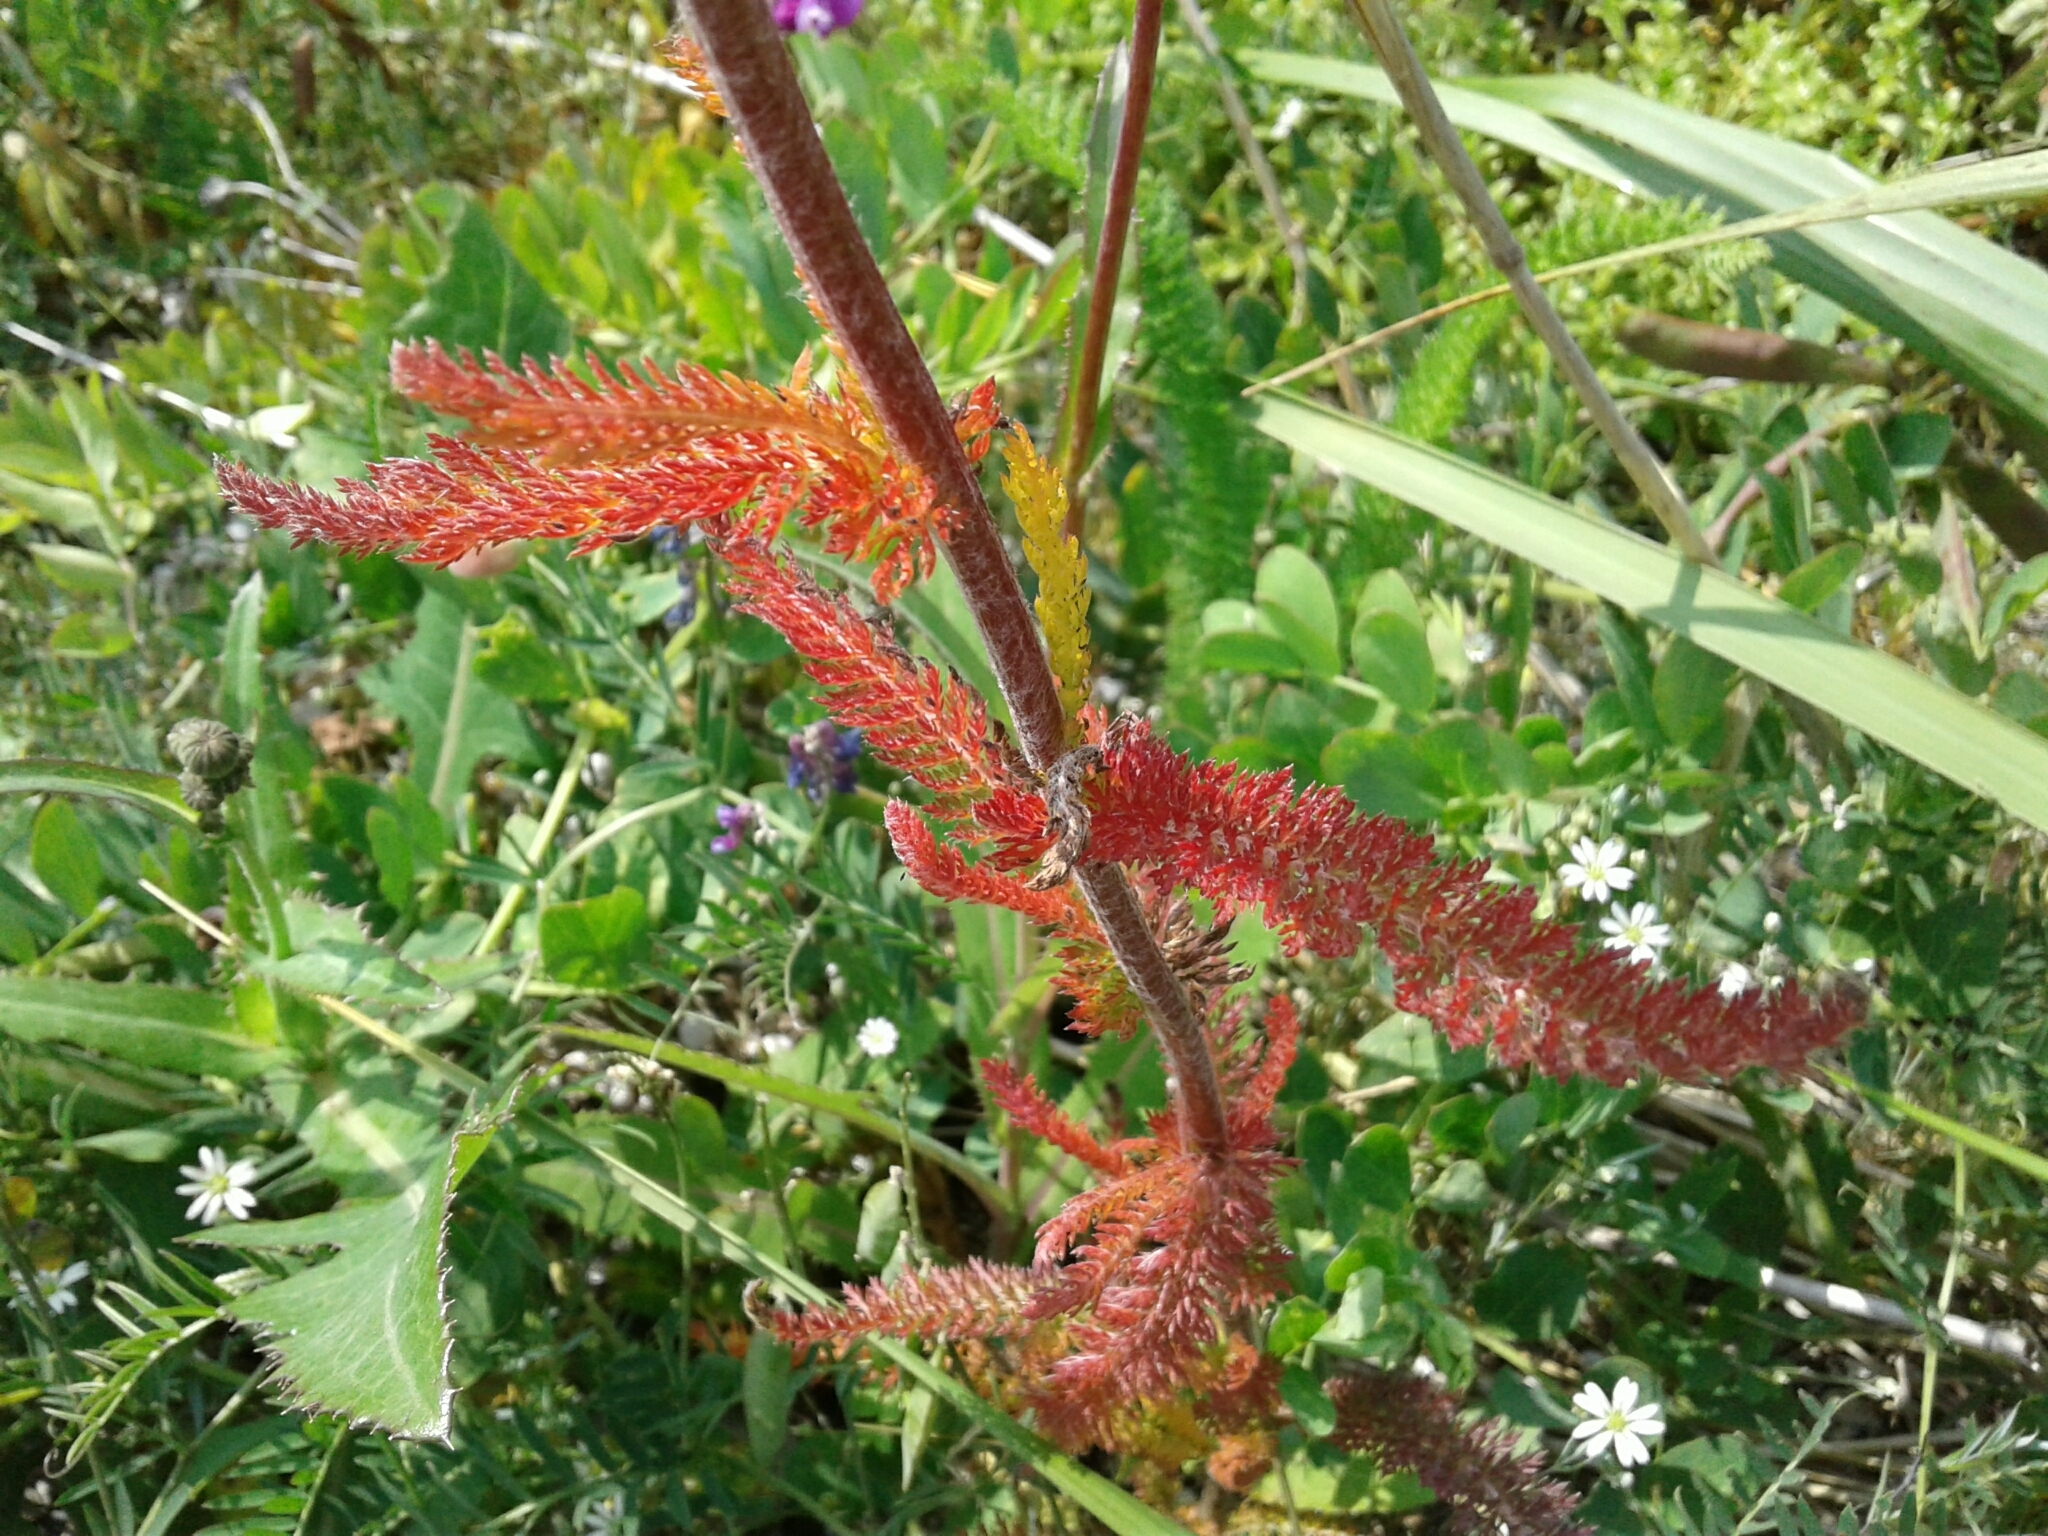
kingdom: Plantae
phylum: Tracheophyta
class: Magnoliopsida
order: Asterales
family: Asteraceae
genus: Achillea
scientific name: Achillea millefolium
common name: Yarrow
